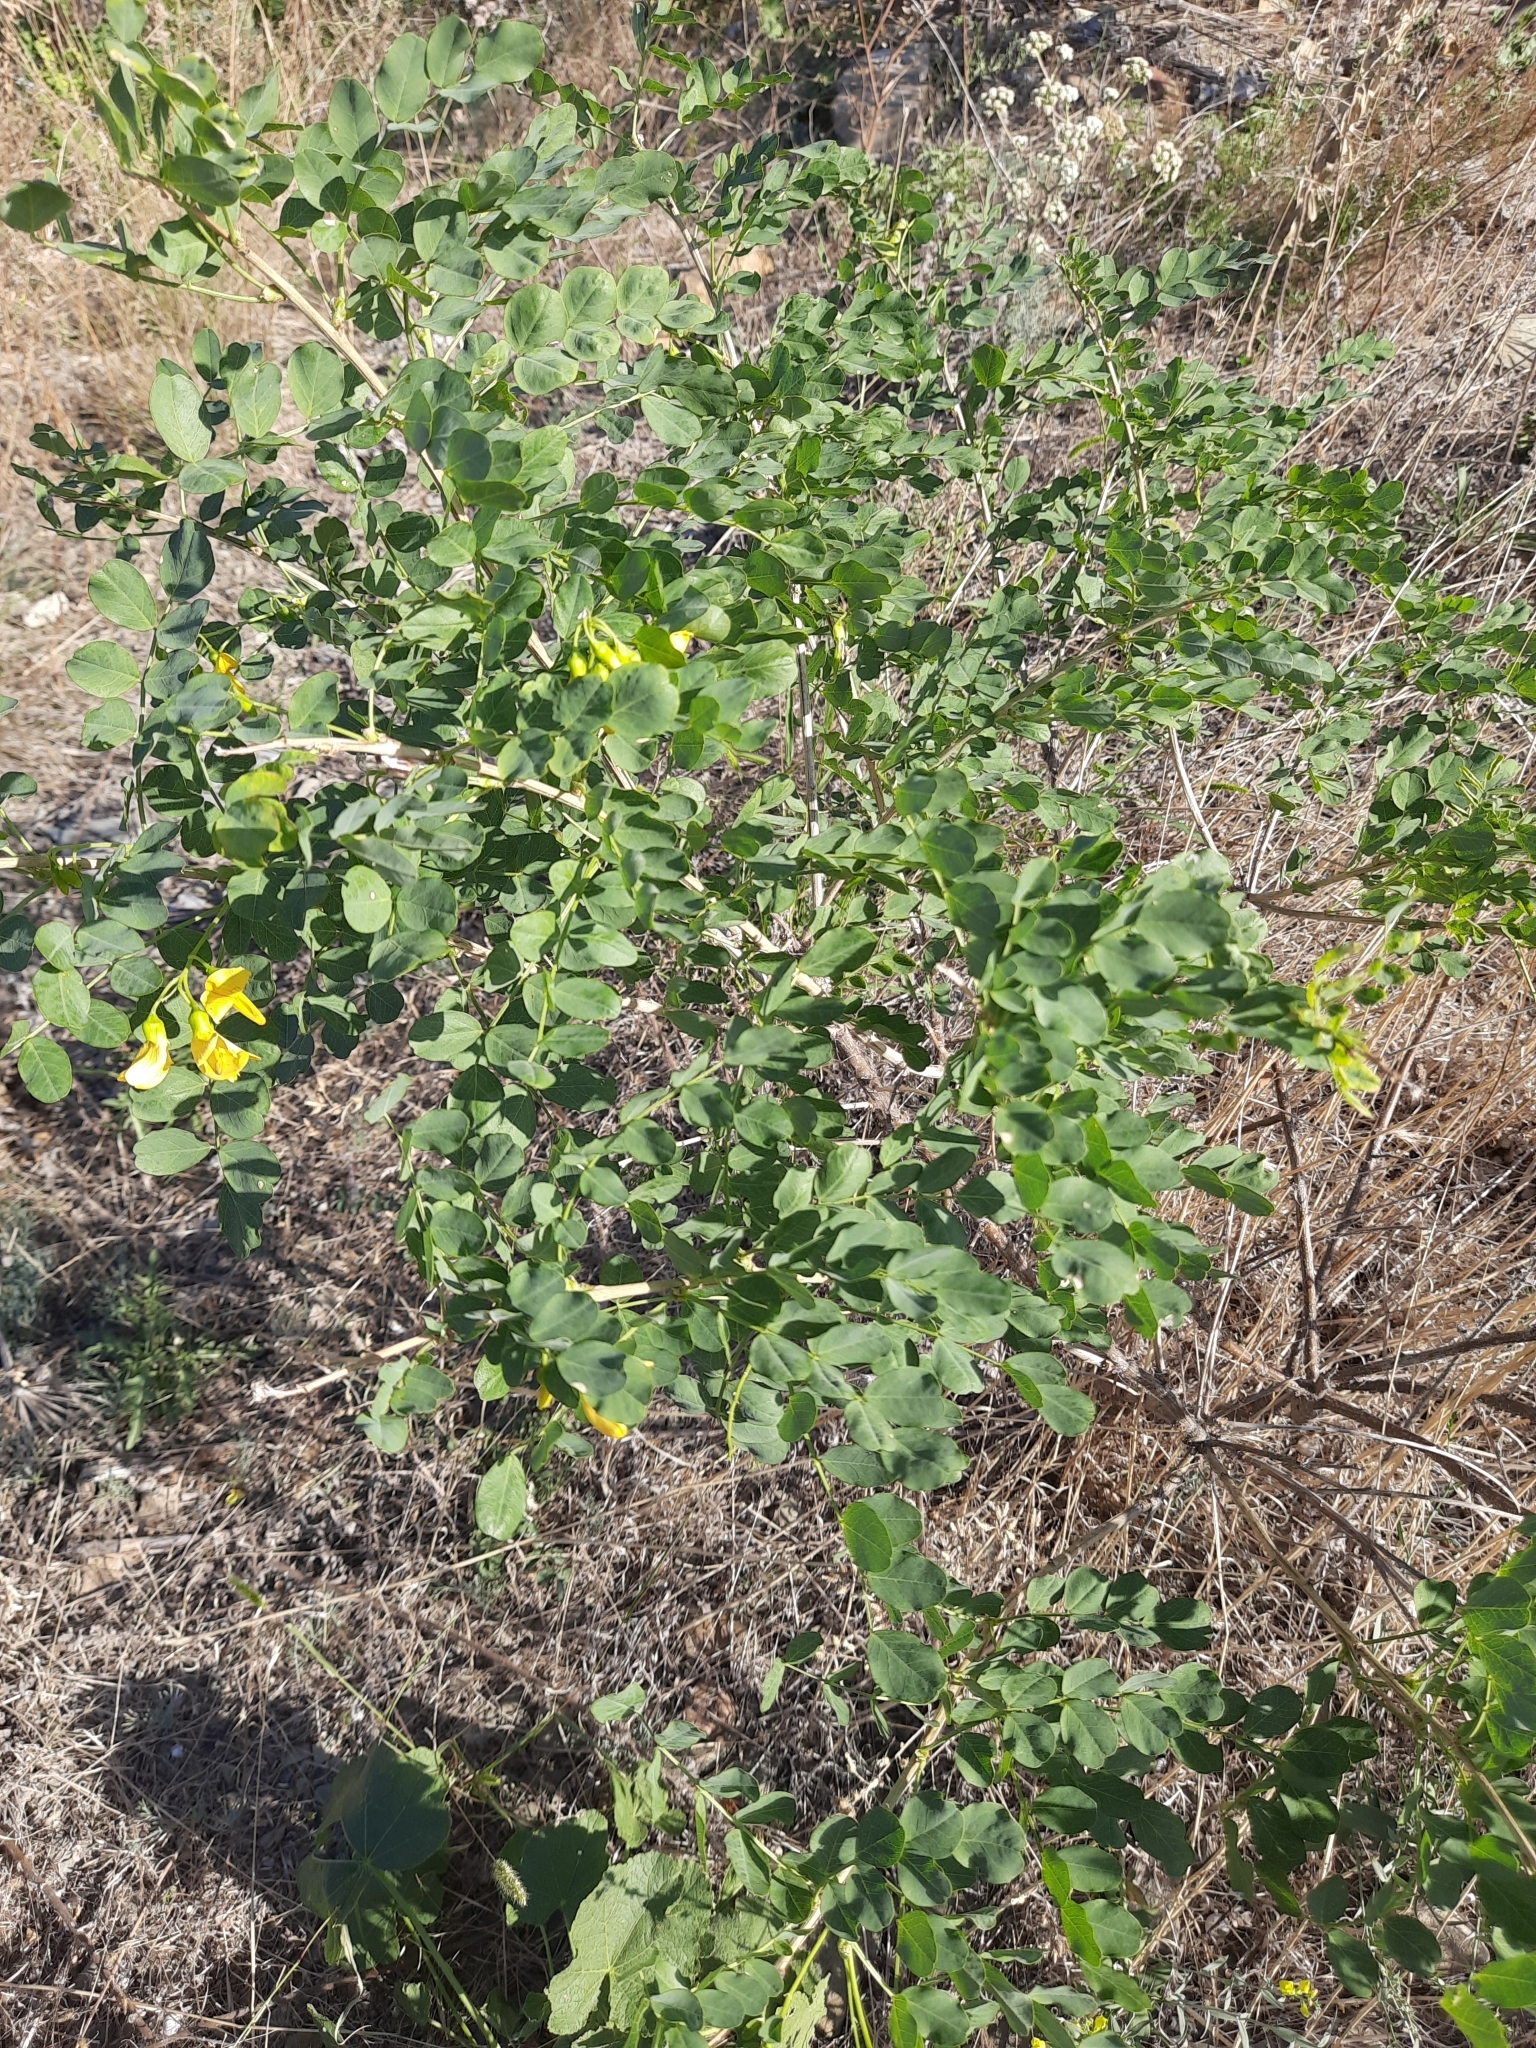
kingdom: Plantae
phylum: Tracheophyta
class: Magnoliopsida
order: Fabales
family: Fabaceae
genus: Colutea
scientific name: Colutea cilicica
